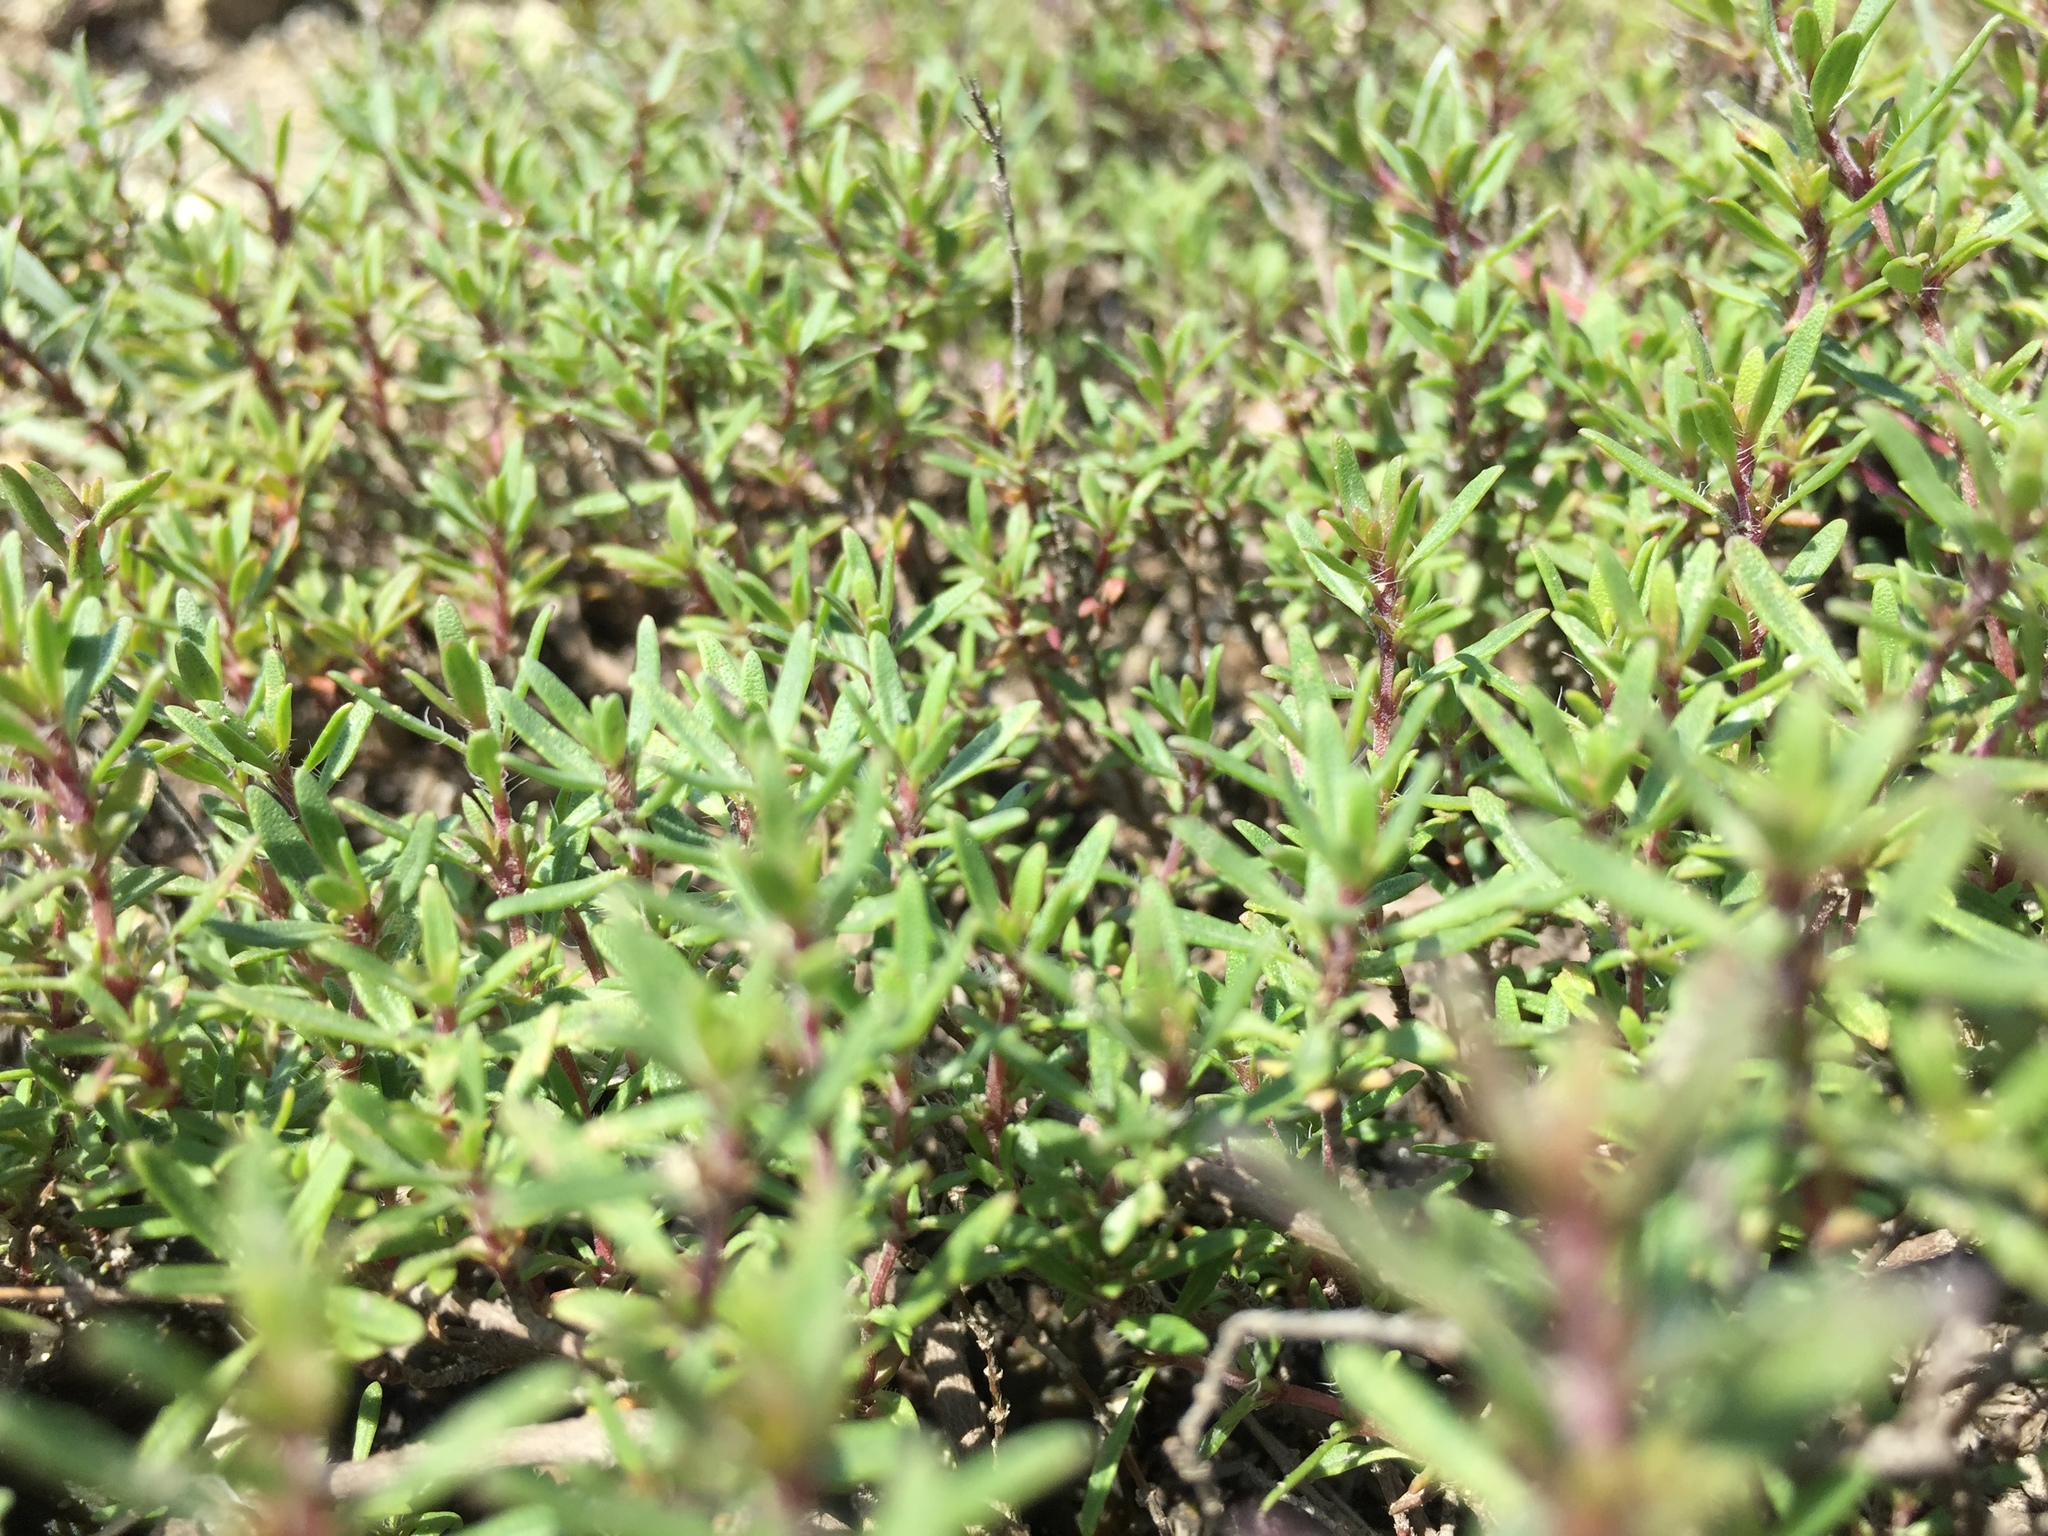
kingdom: Plantae
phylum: Tracheophyta
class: Magnoliopsida
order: Lamiales
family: Lamiaceae
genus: Thymus
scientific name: Thymus calcareus
